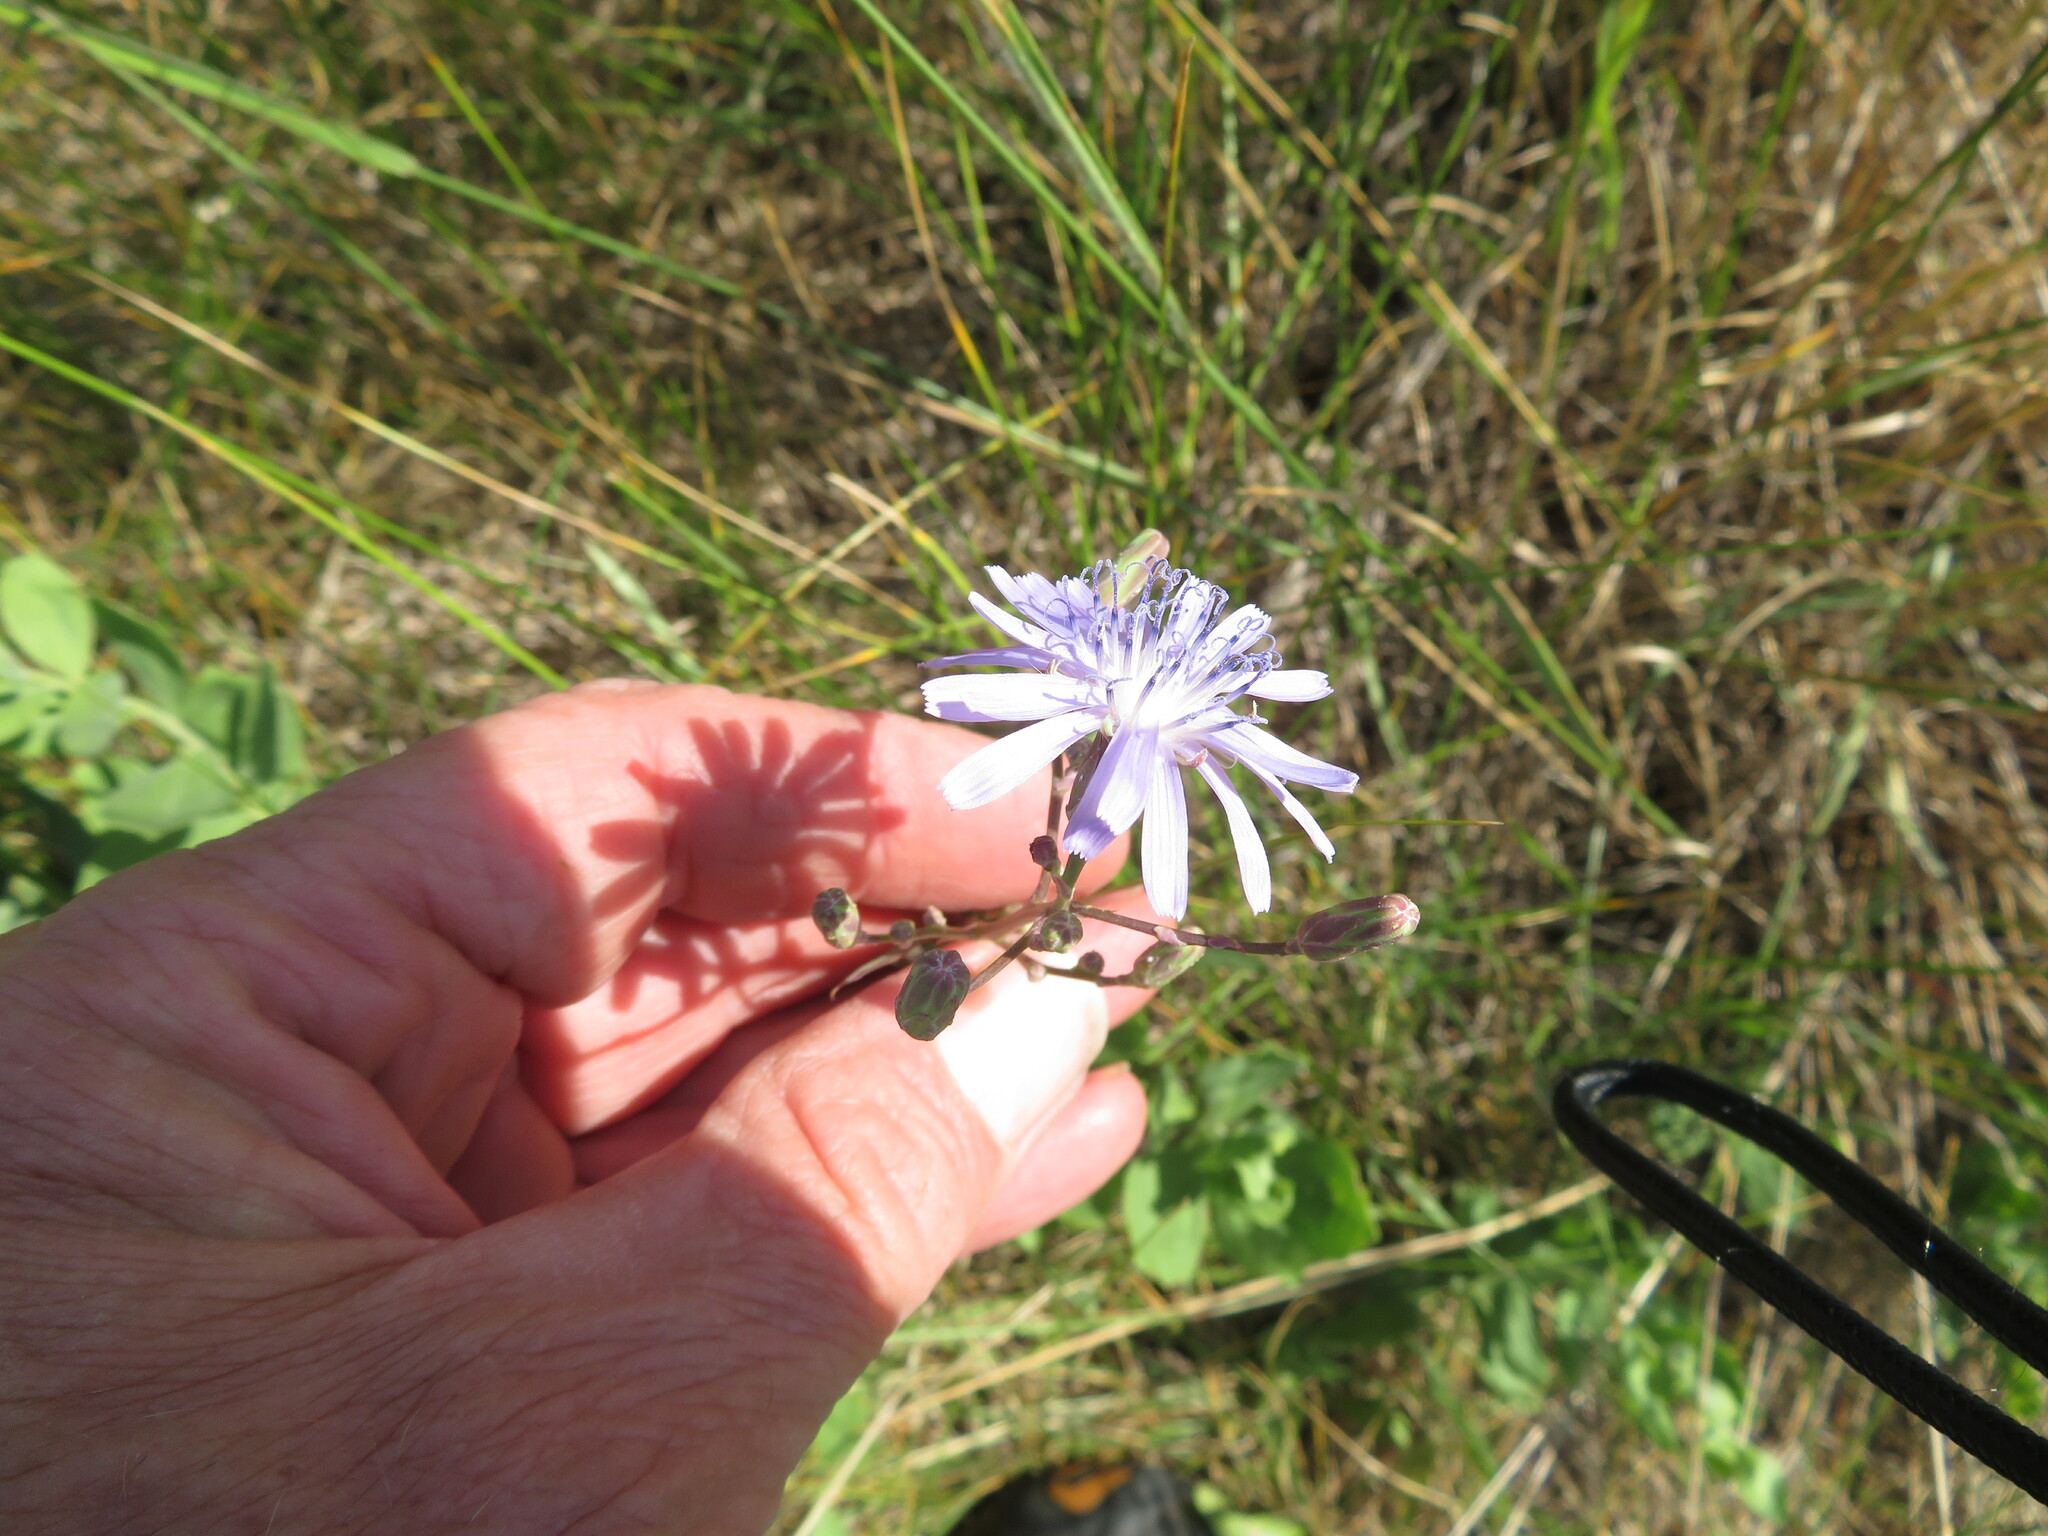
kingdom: Plantae
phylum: Tracheophyta
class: Magnoliopsida
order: Asterales
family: Asteraceae
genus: Lactuca
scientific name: Lactuca pulchella
